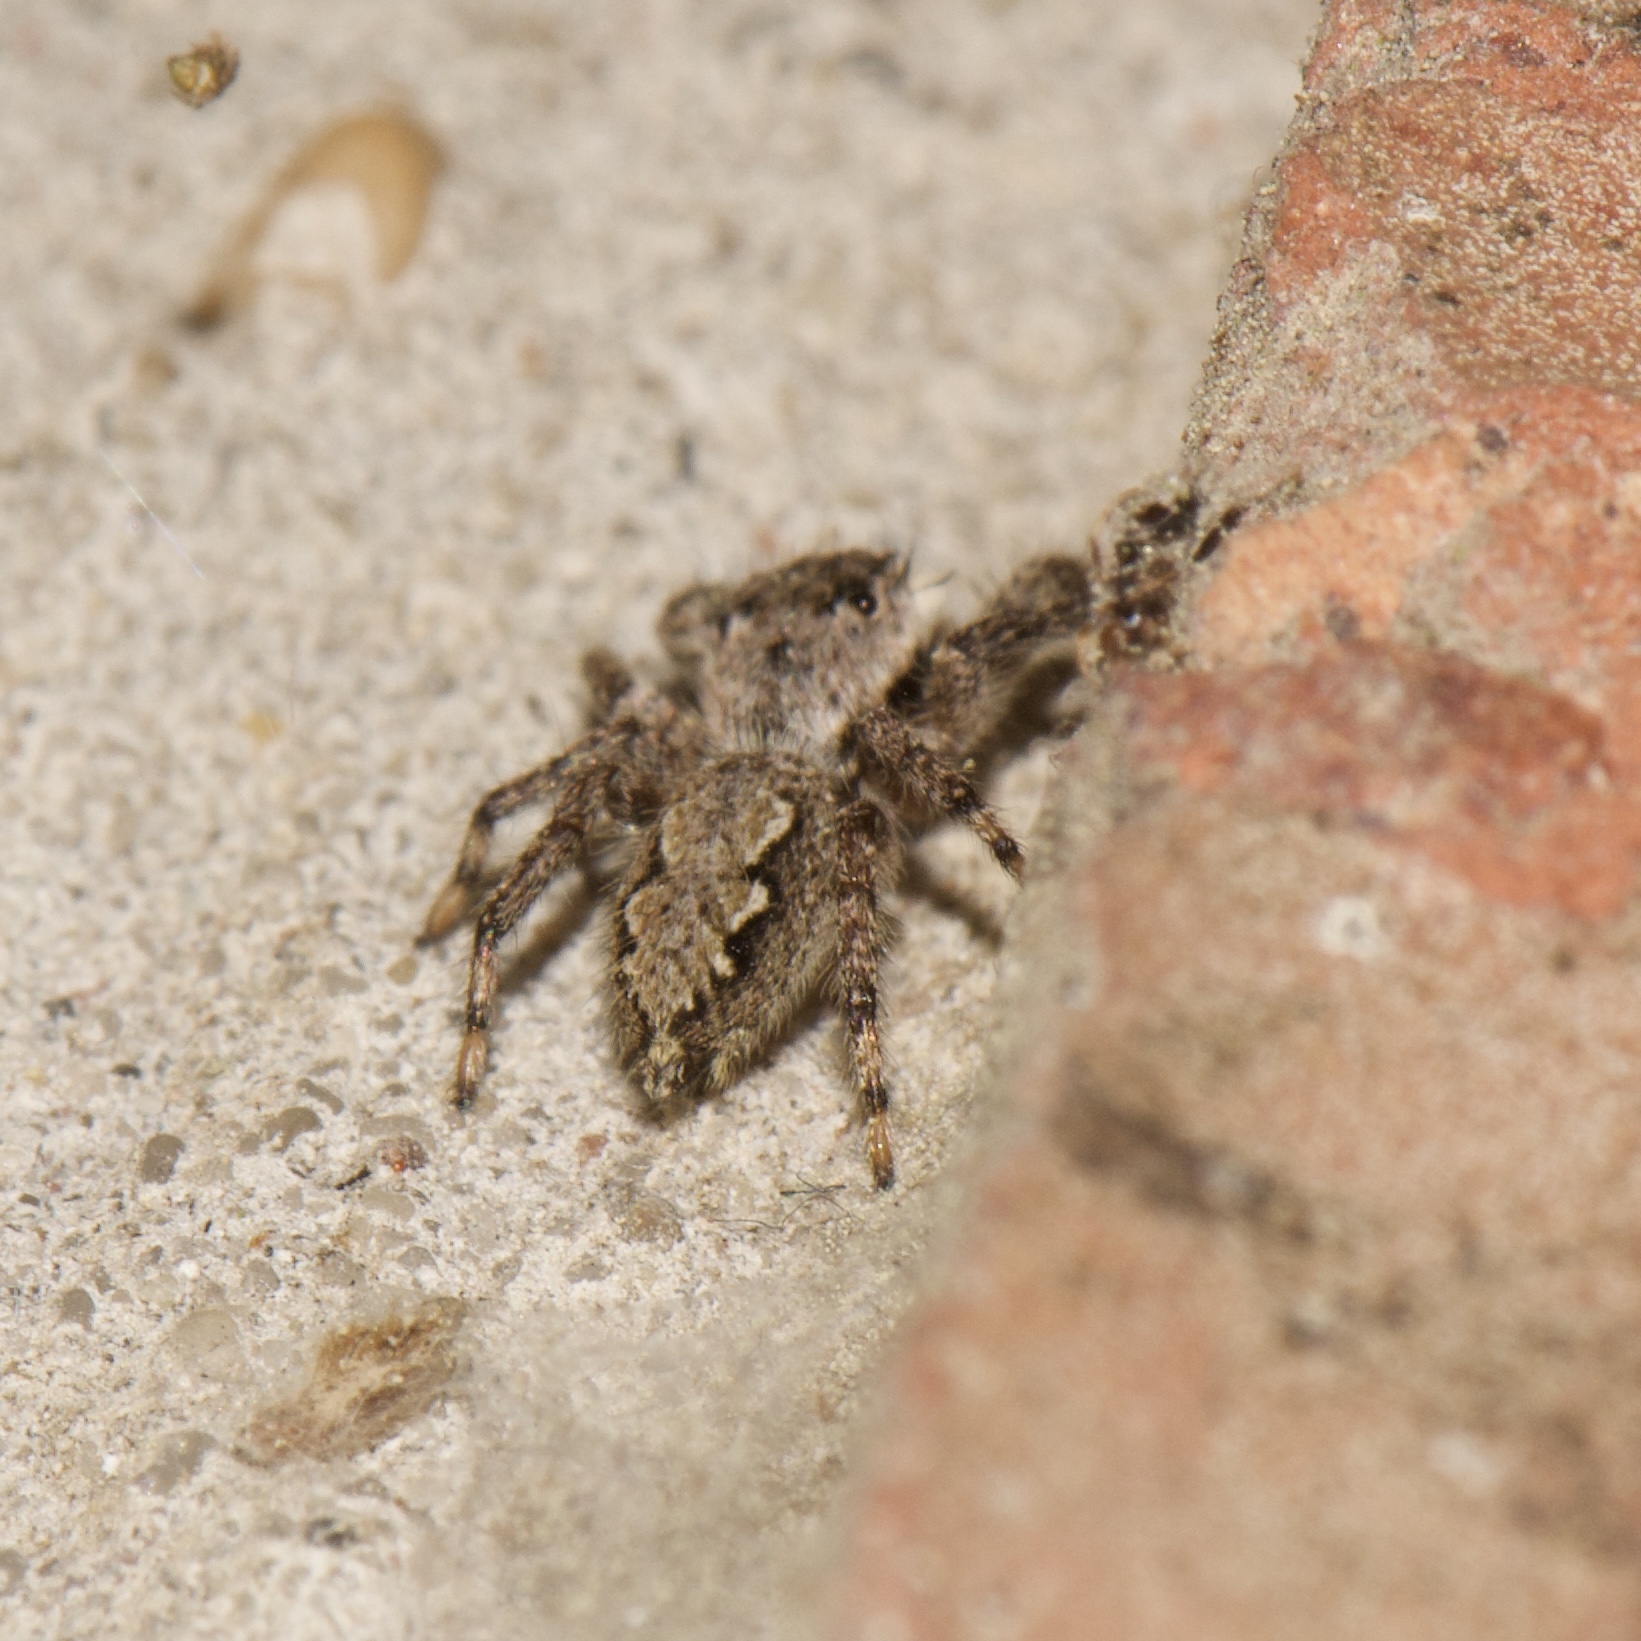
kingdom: Animalia
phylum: Arthropoda
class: Arachnida
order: Araneae
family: Salticidae
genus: Platycryptus
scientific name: Platycryptus undatus
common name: Tan jumping spider
